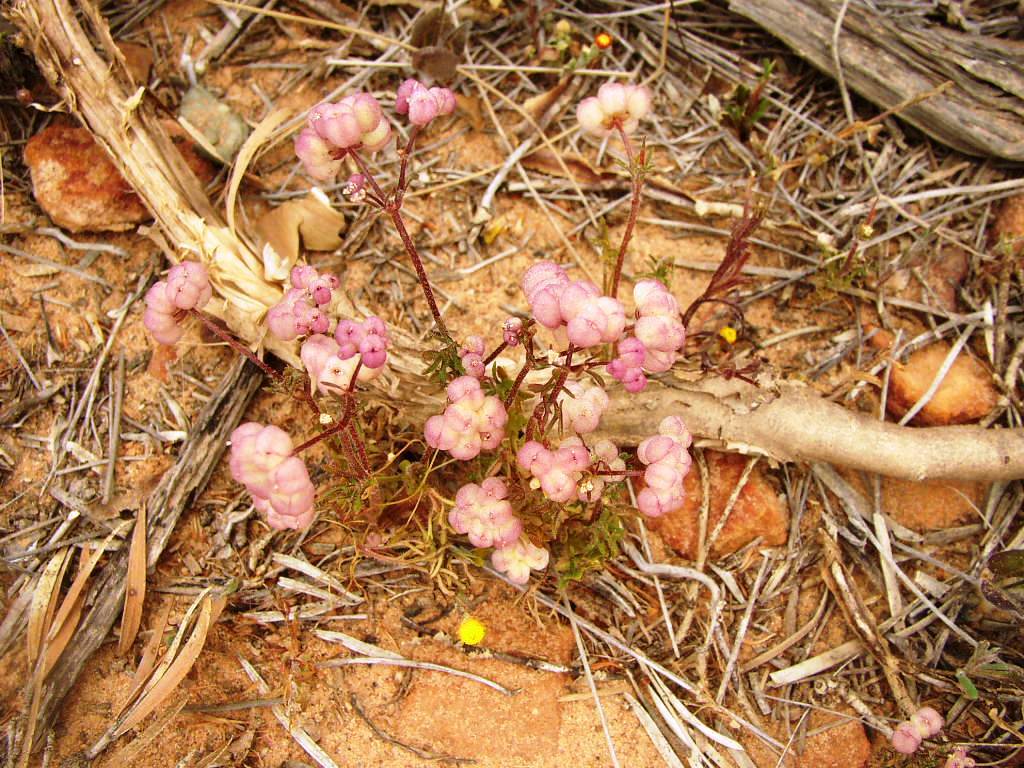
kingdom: Plantae
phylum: Tracheophyta
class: Magnoliopsida
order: Apiales
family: Araliaceae
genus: Trachymene
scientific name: Trachymene ornata
